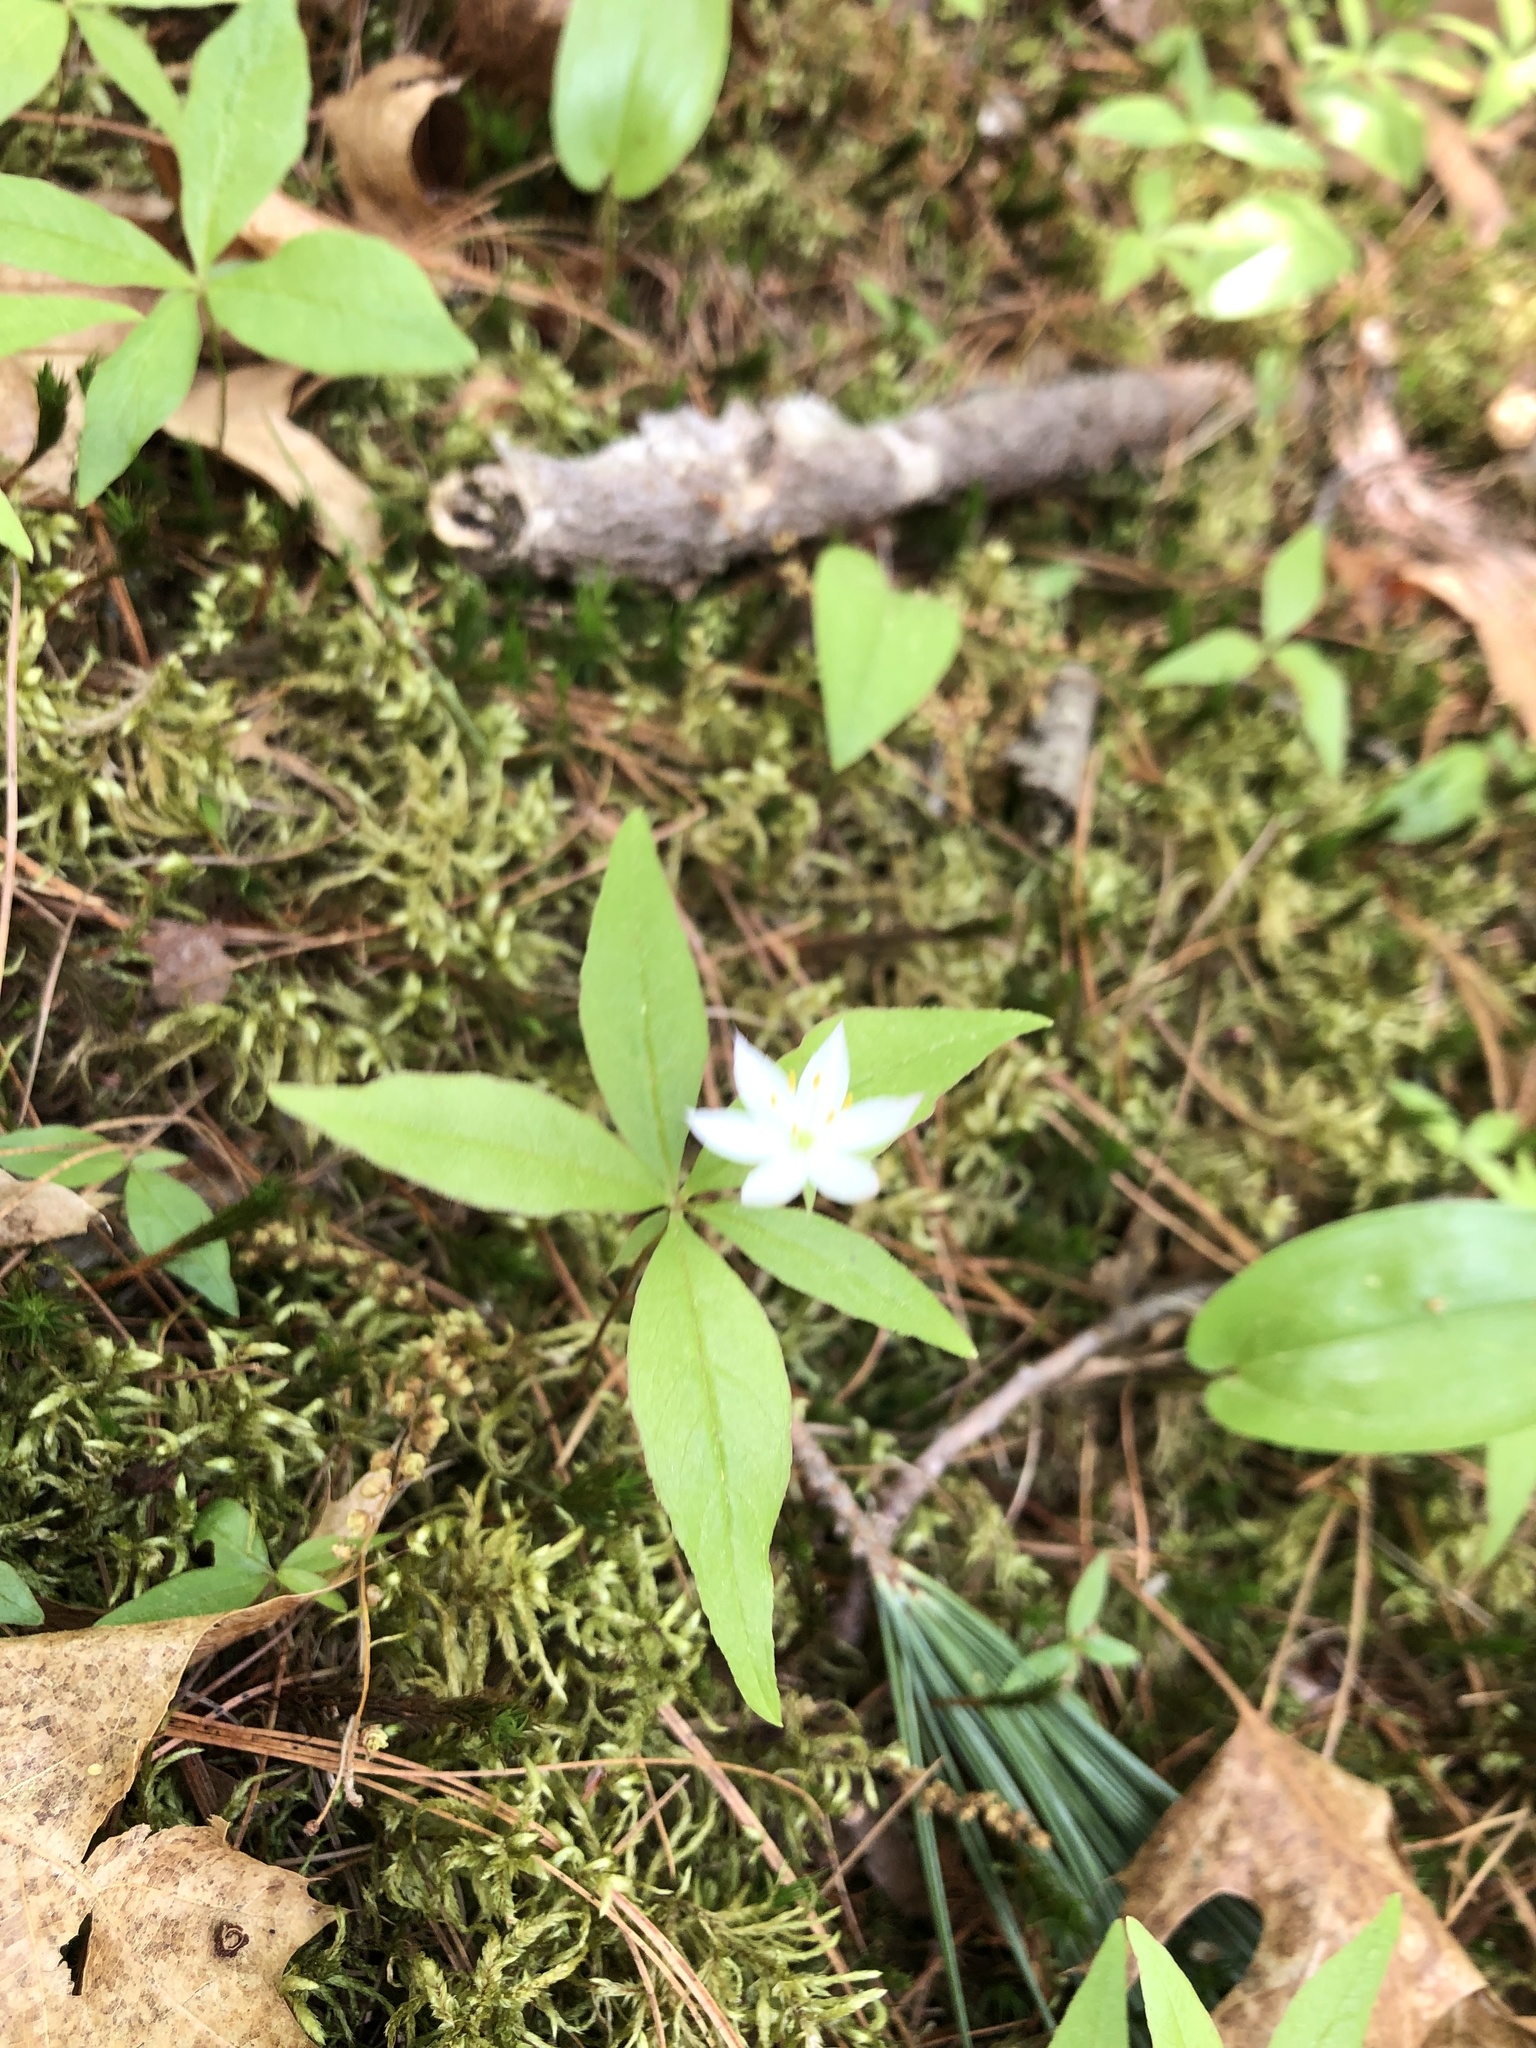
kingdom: Plantae
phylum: Tracheophyta
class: Magnoliopsida
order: Ericales
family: Primulaceae
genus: Lysimachia
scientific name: Lysimachia borealis
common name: American starflower
